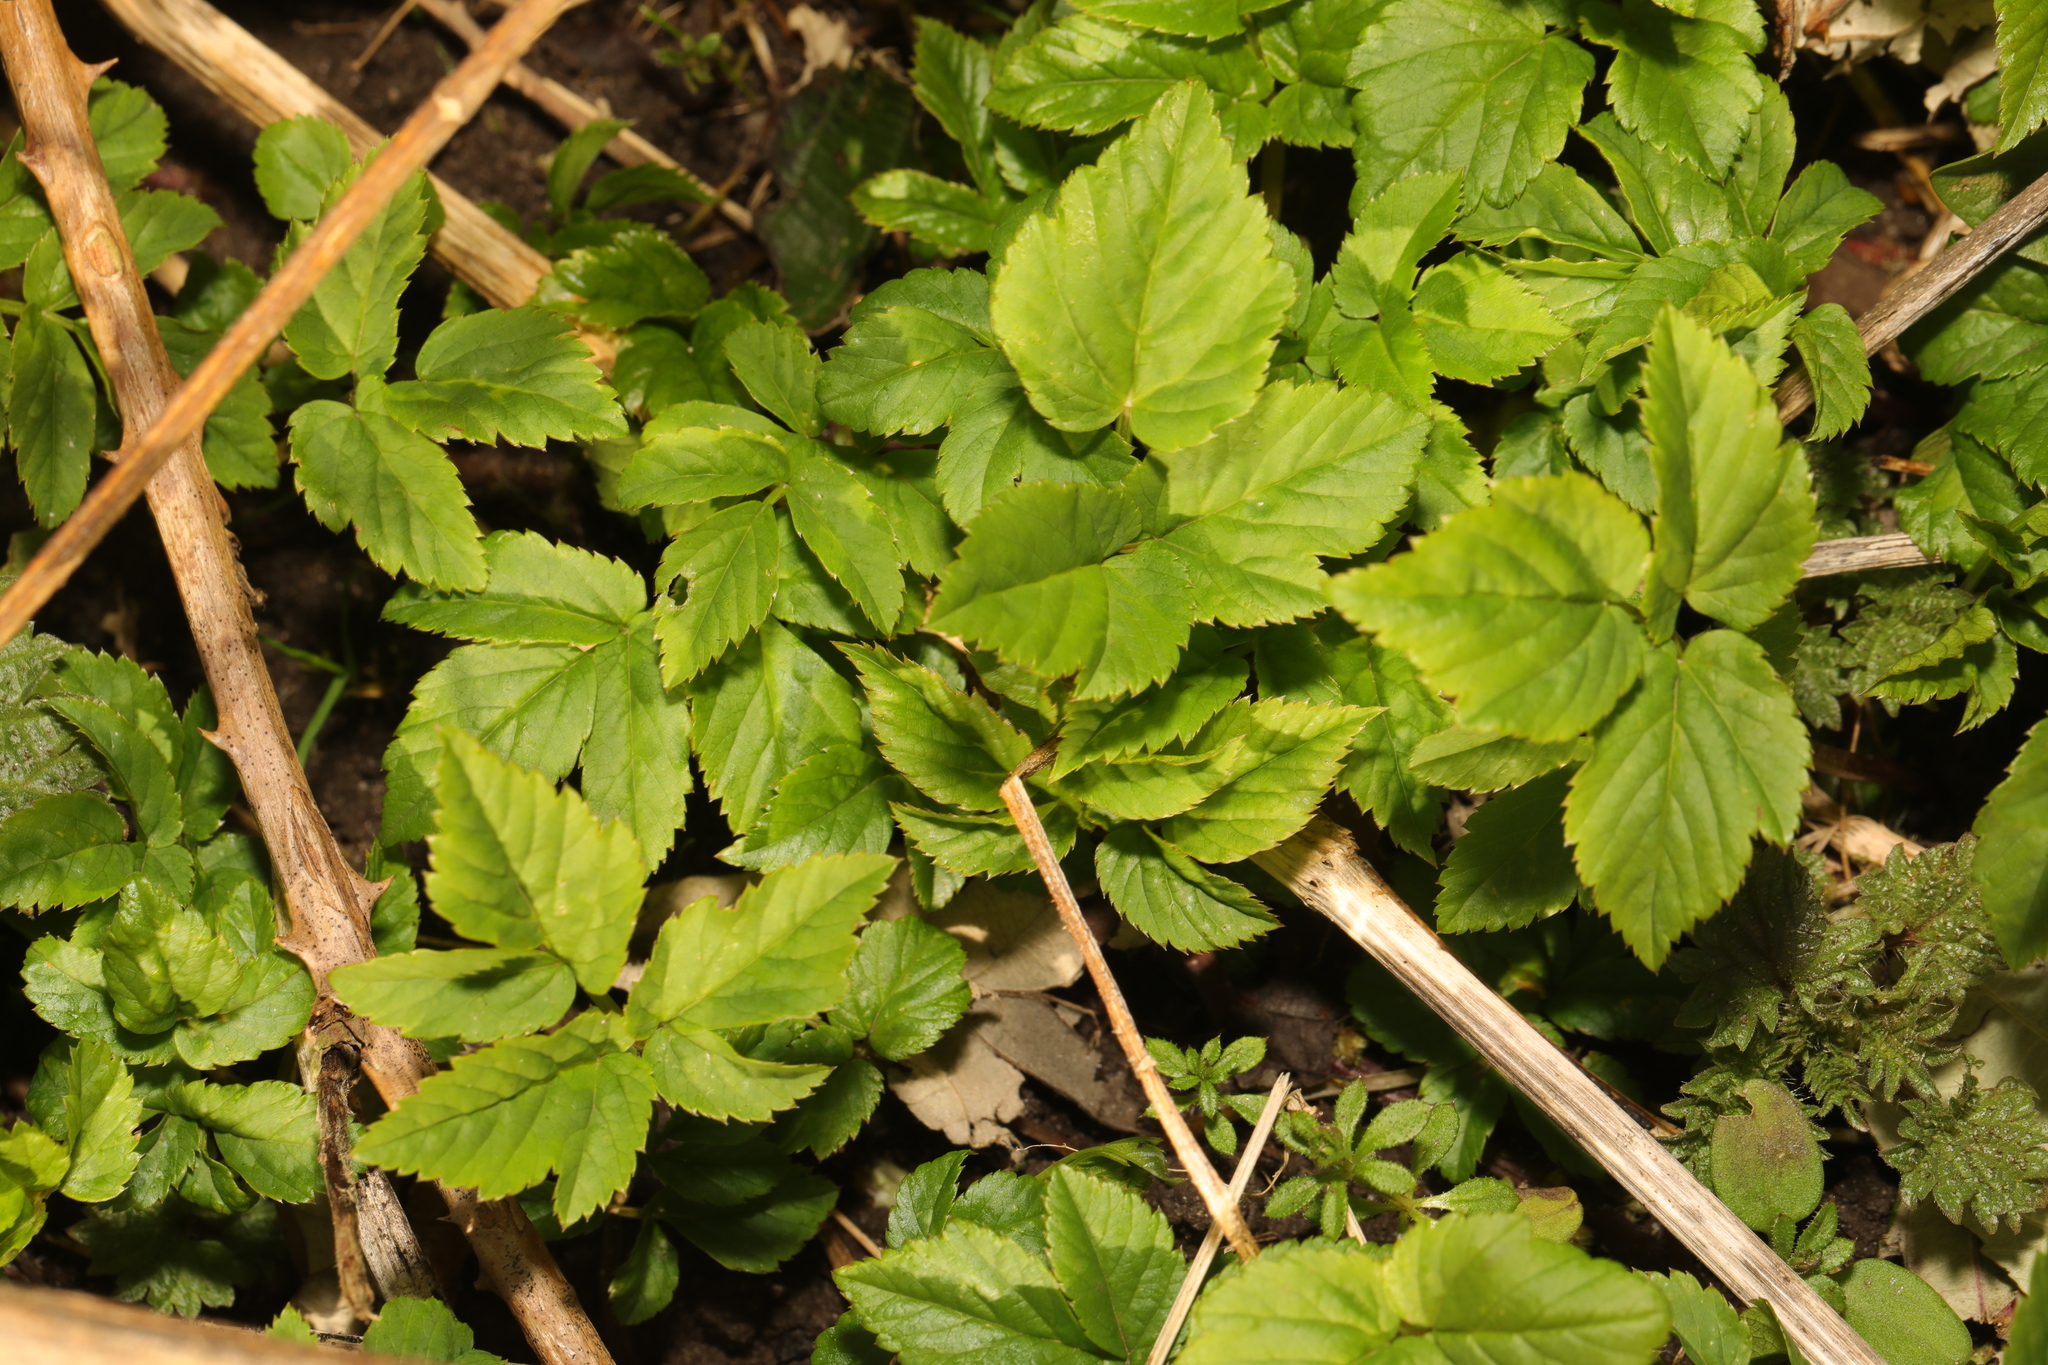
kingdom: Plantae
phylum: Tracheophyta
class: Magnoliopsida
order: Apiales
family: Apiaceae
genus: Aegopodium
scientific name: Aegopodium podagraria
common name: Ground-elder
